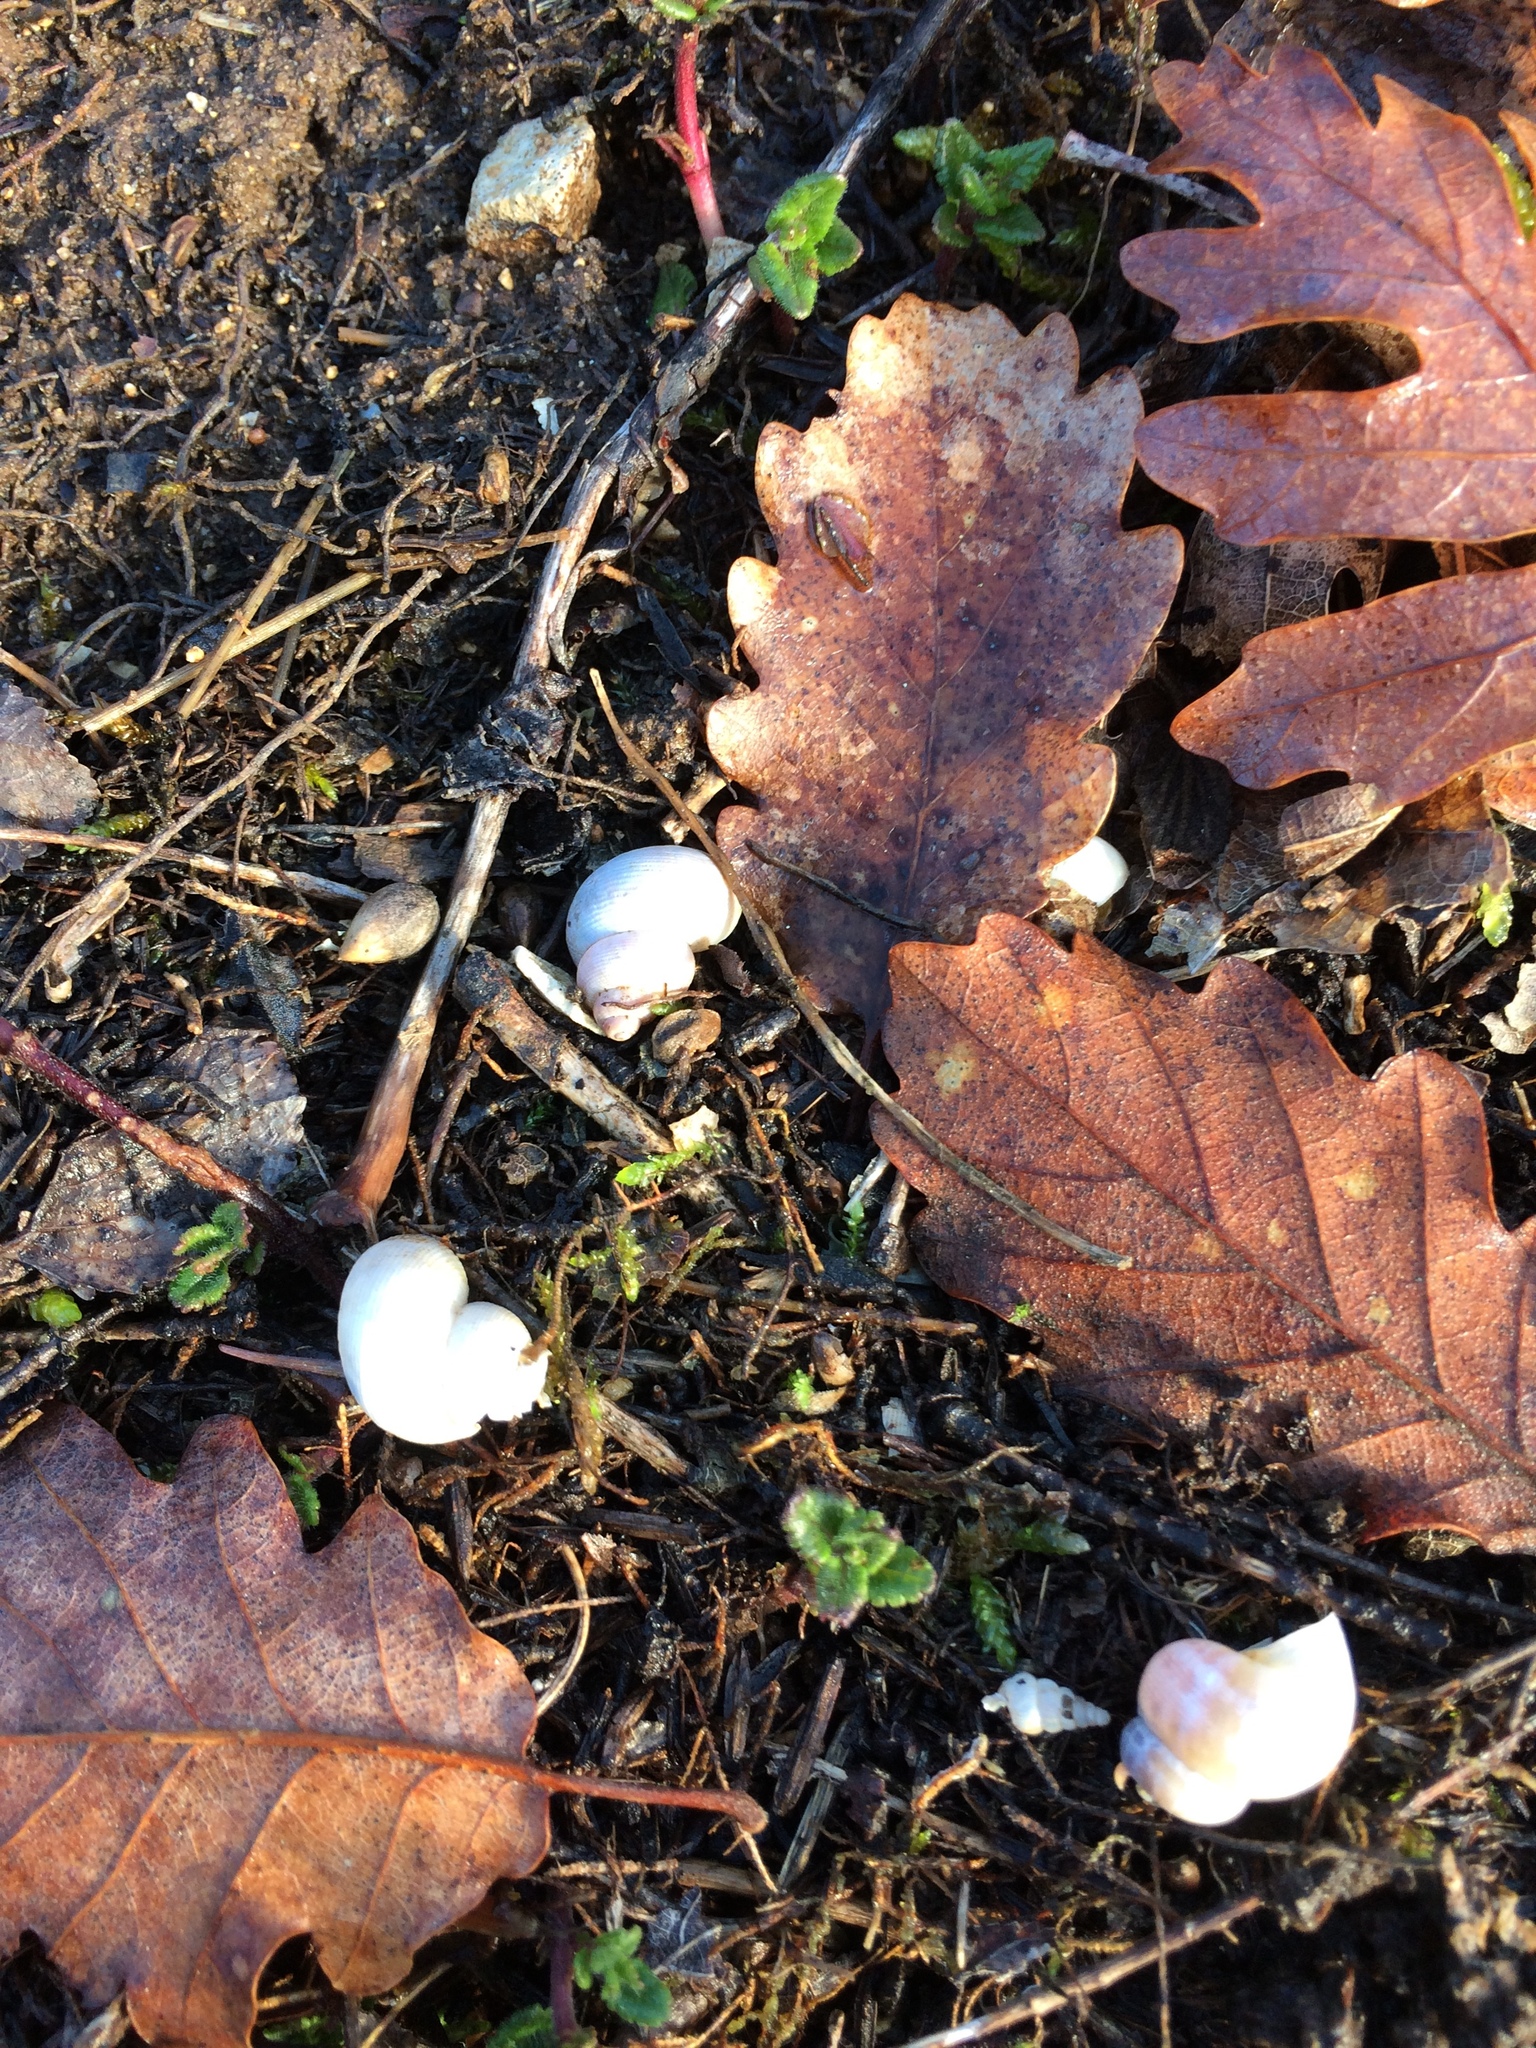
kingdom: Animalia
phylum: Mollusca
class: Gastropoda
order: Littorinimorpha
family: Pomatiidae
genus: Pomatias
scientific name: Pomatias elegans
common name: Red-mouthed snail
